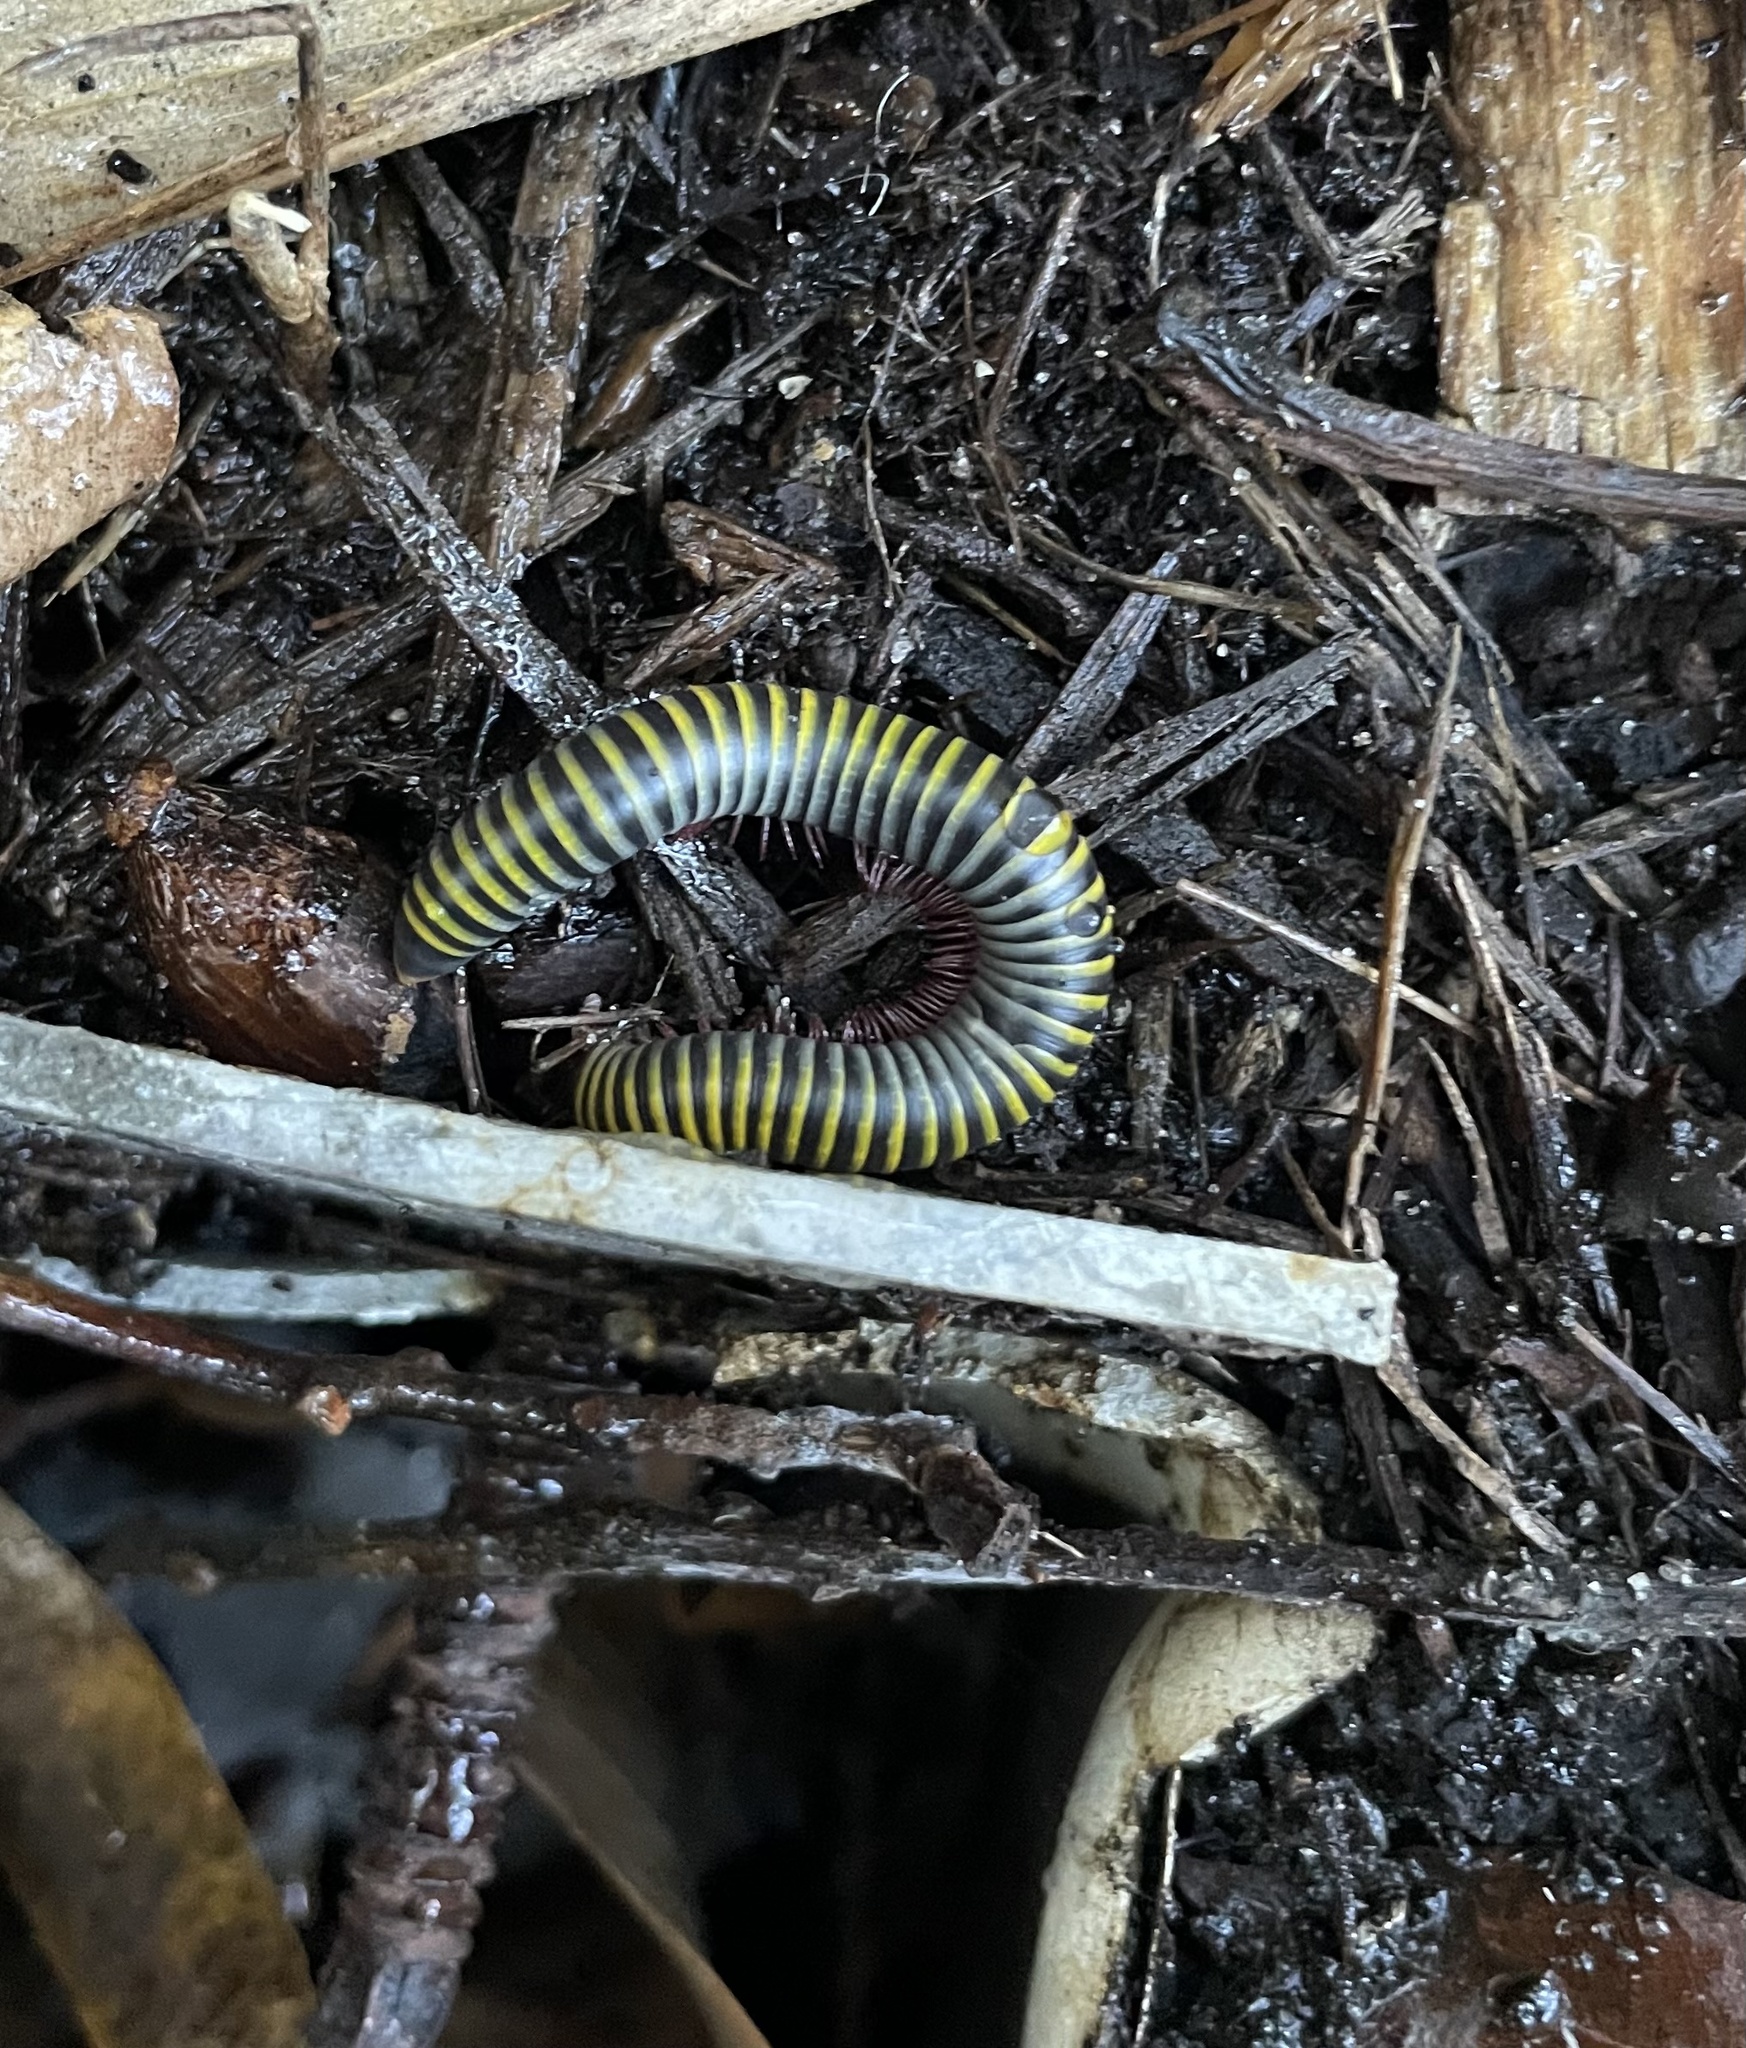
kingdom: Animalia
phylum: Arthropoda
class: Diplopoda
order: Spirobolida
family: Rhinocricidae
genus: Anadenobolus
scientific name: Anadenobolus monilicornis
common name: Caribbean millipede
